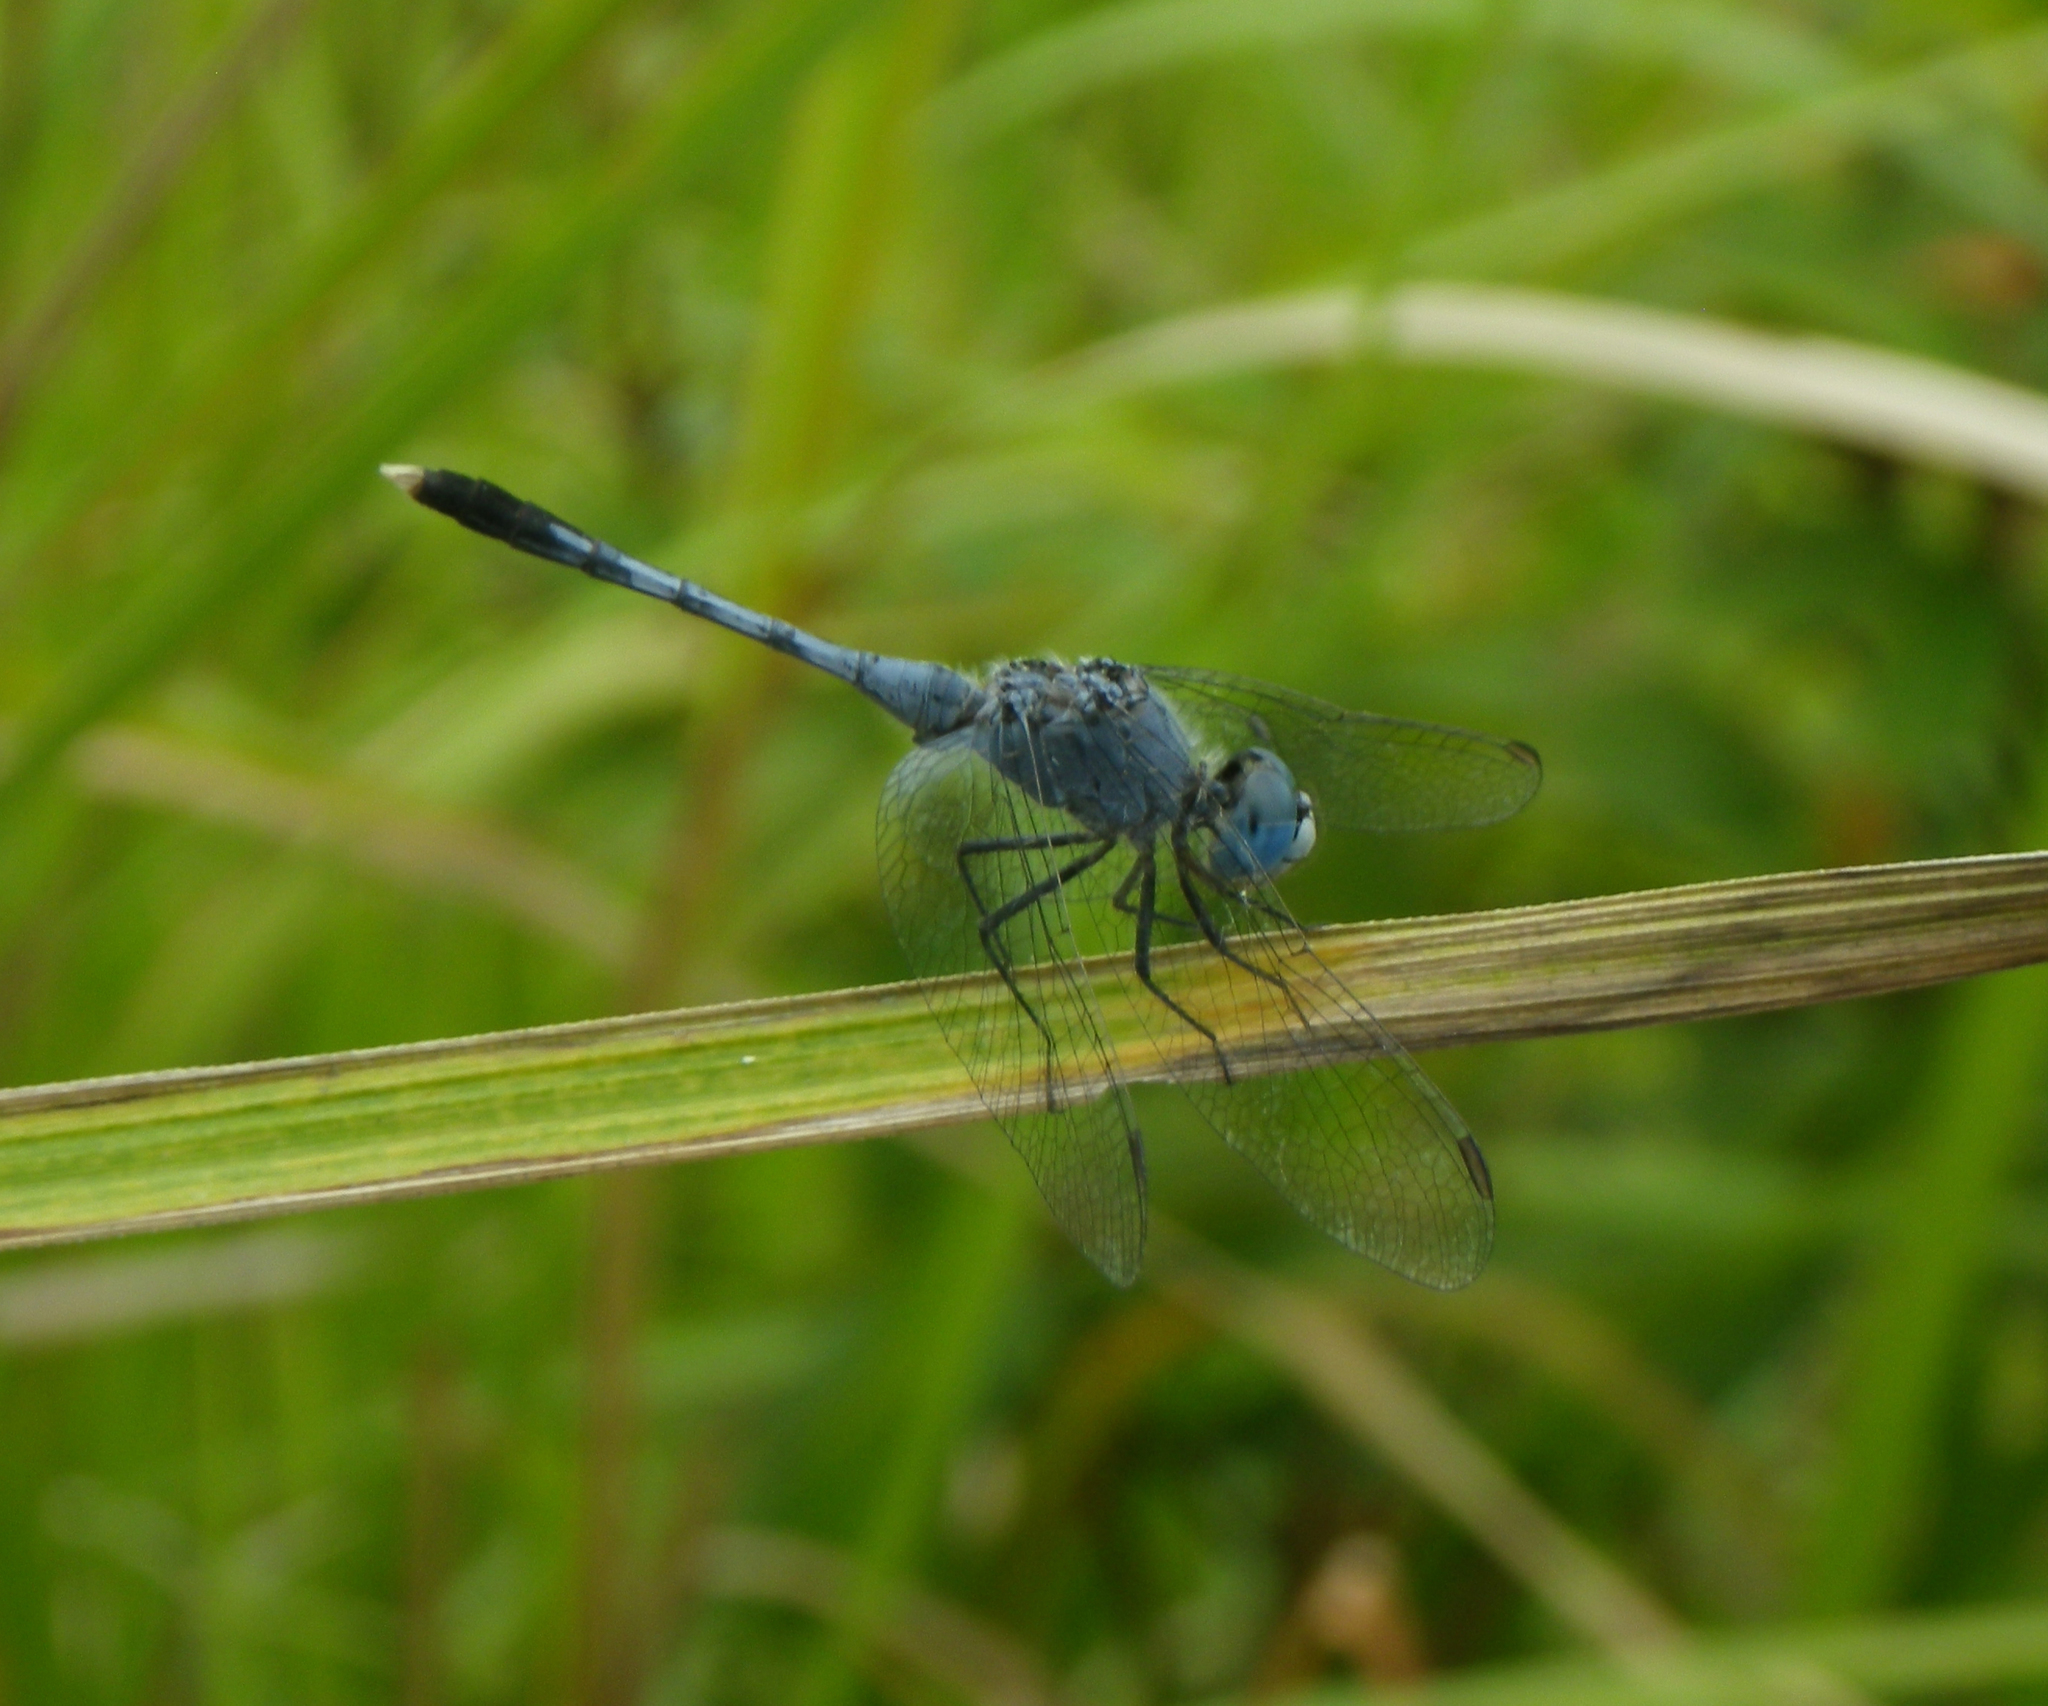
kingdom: Animalia
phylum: Arthropoda
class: Insecta
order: Odonata
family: Libellulidae
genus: Diplacodes
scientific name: Diplacodes trivialis
